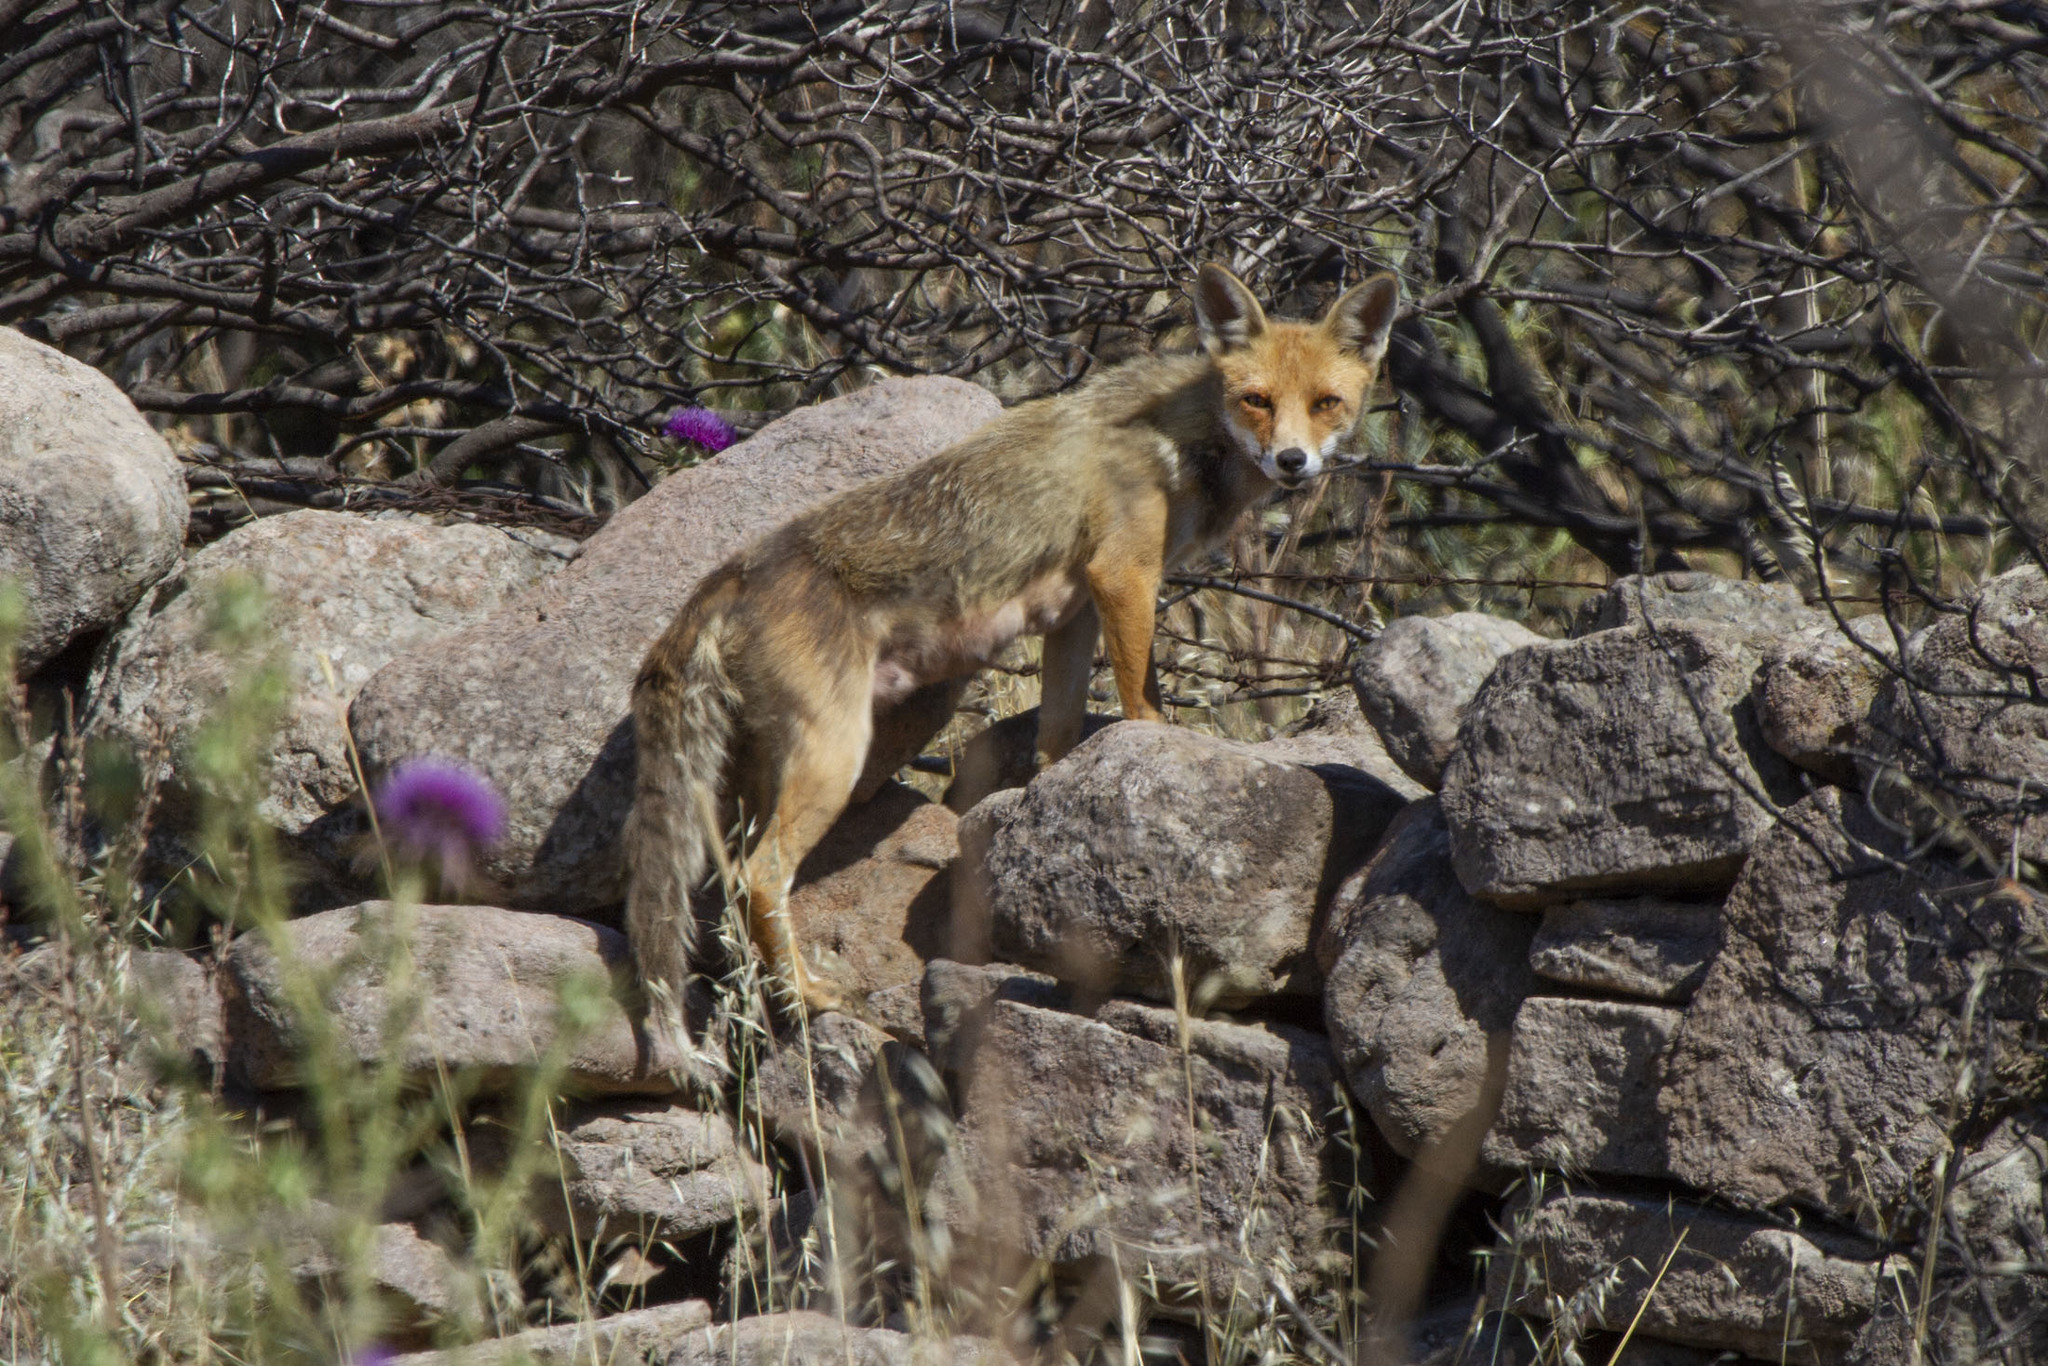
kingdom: Animalia
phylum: Chordata
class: Mammalia
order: Carnivora
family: Canidae
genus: Vulpes
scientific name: Vulpes vulpes
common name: Red fox
